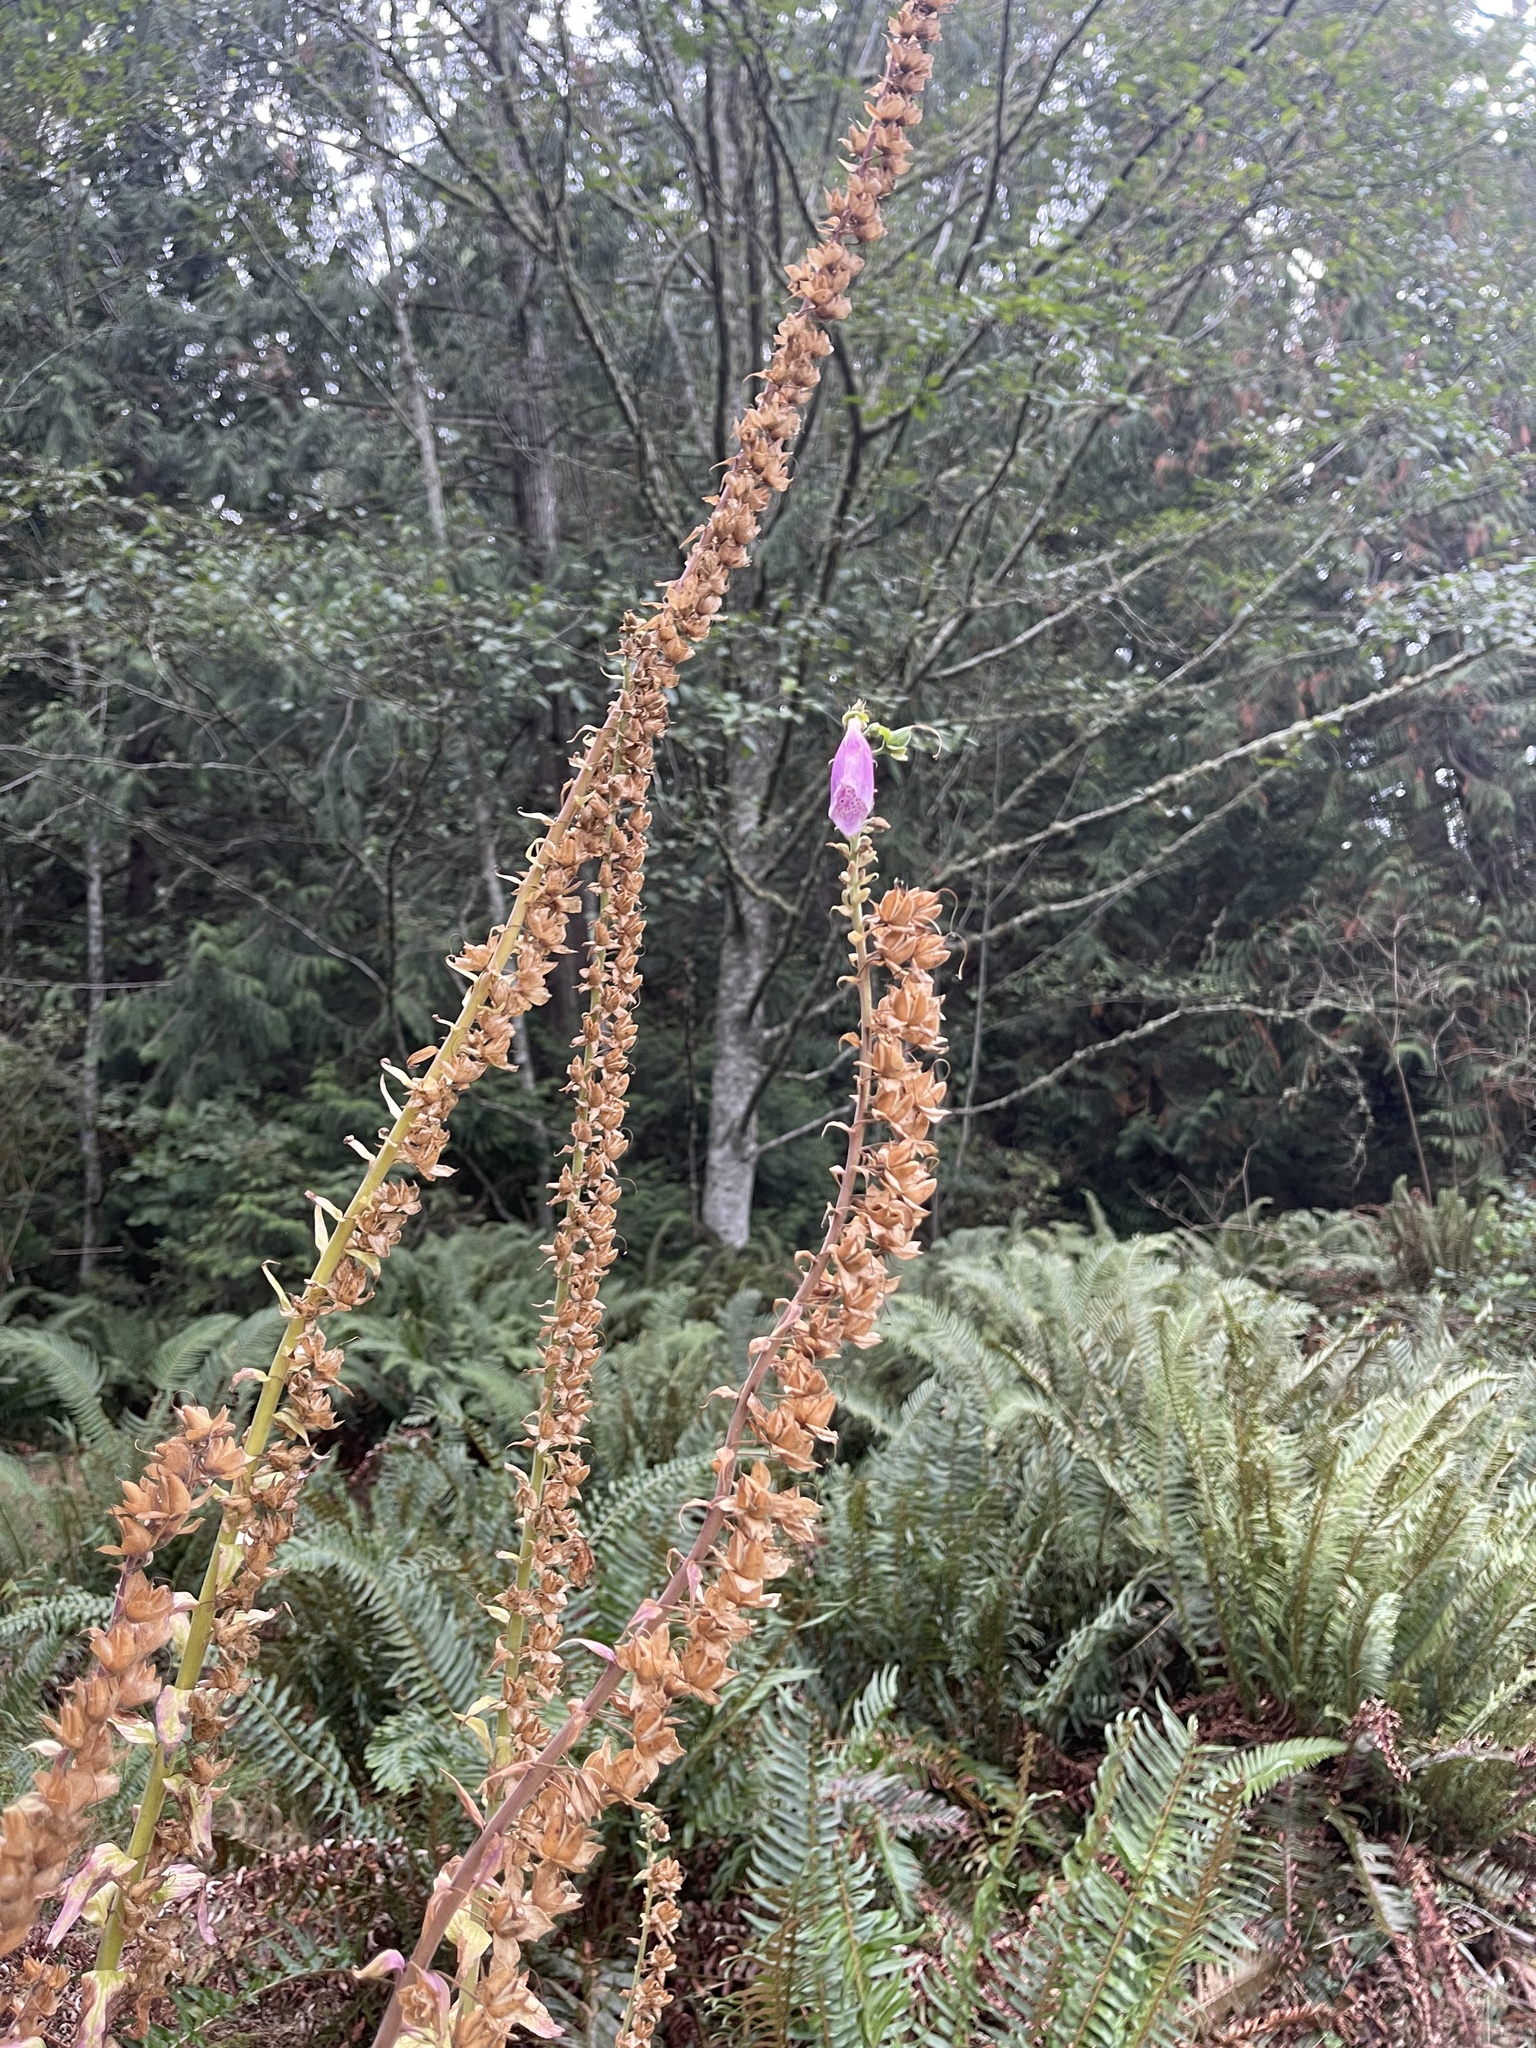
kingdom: Plantae
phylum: Tracheophyta
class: Magnoliopsida
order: Lamiales
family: Plantaginaceae
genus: Digitalis
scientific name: Digitalis purpurea
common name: Foxglove
